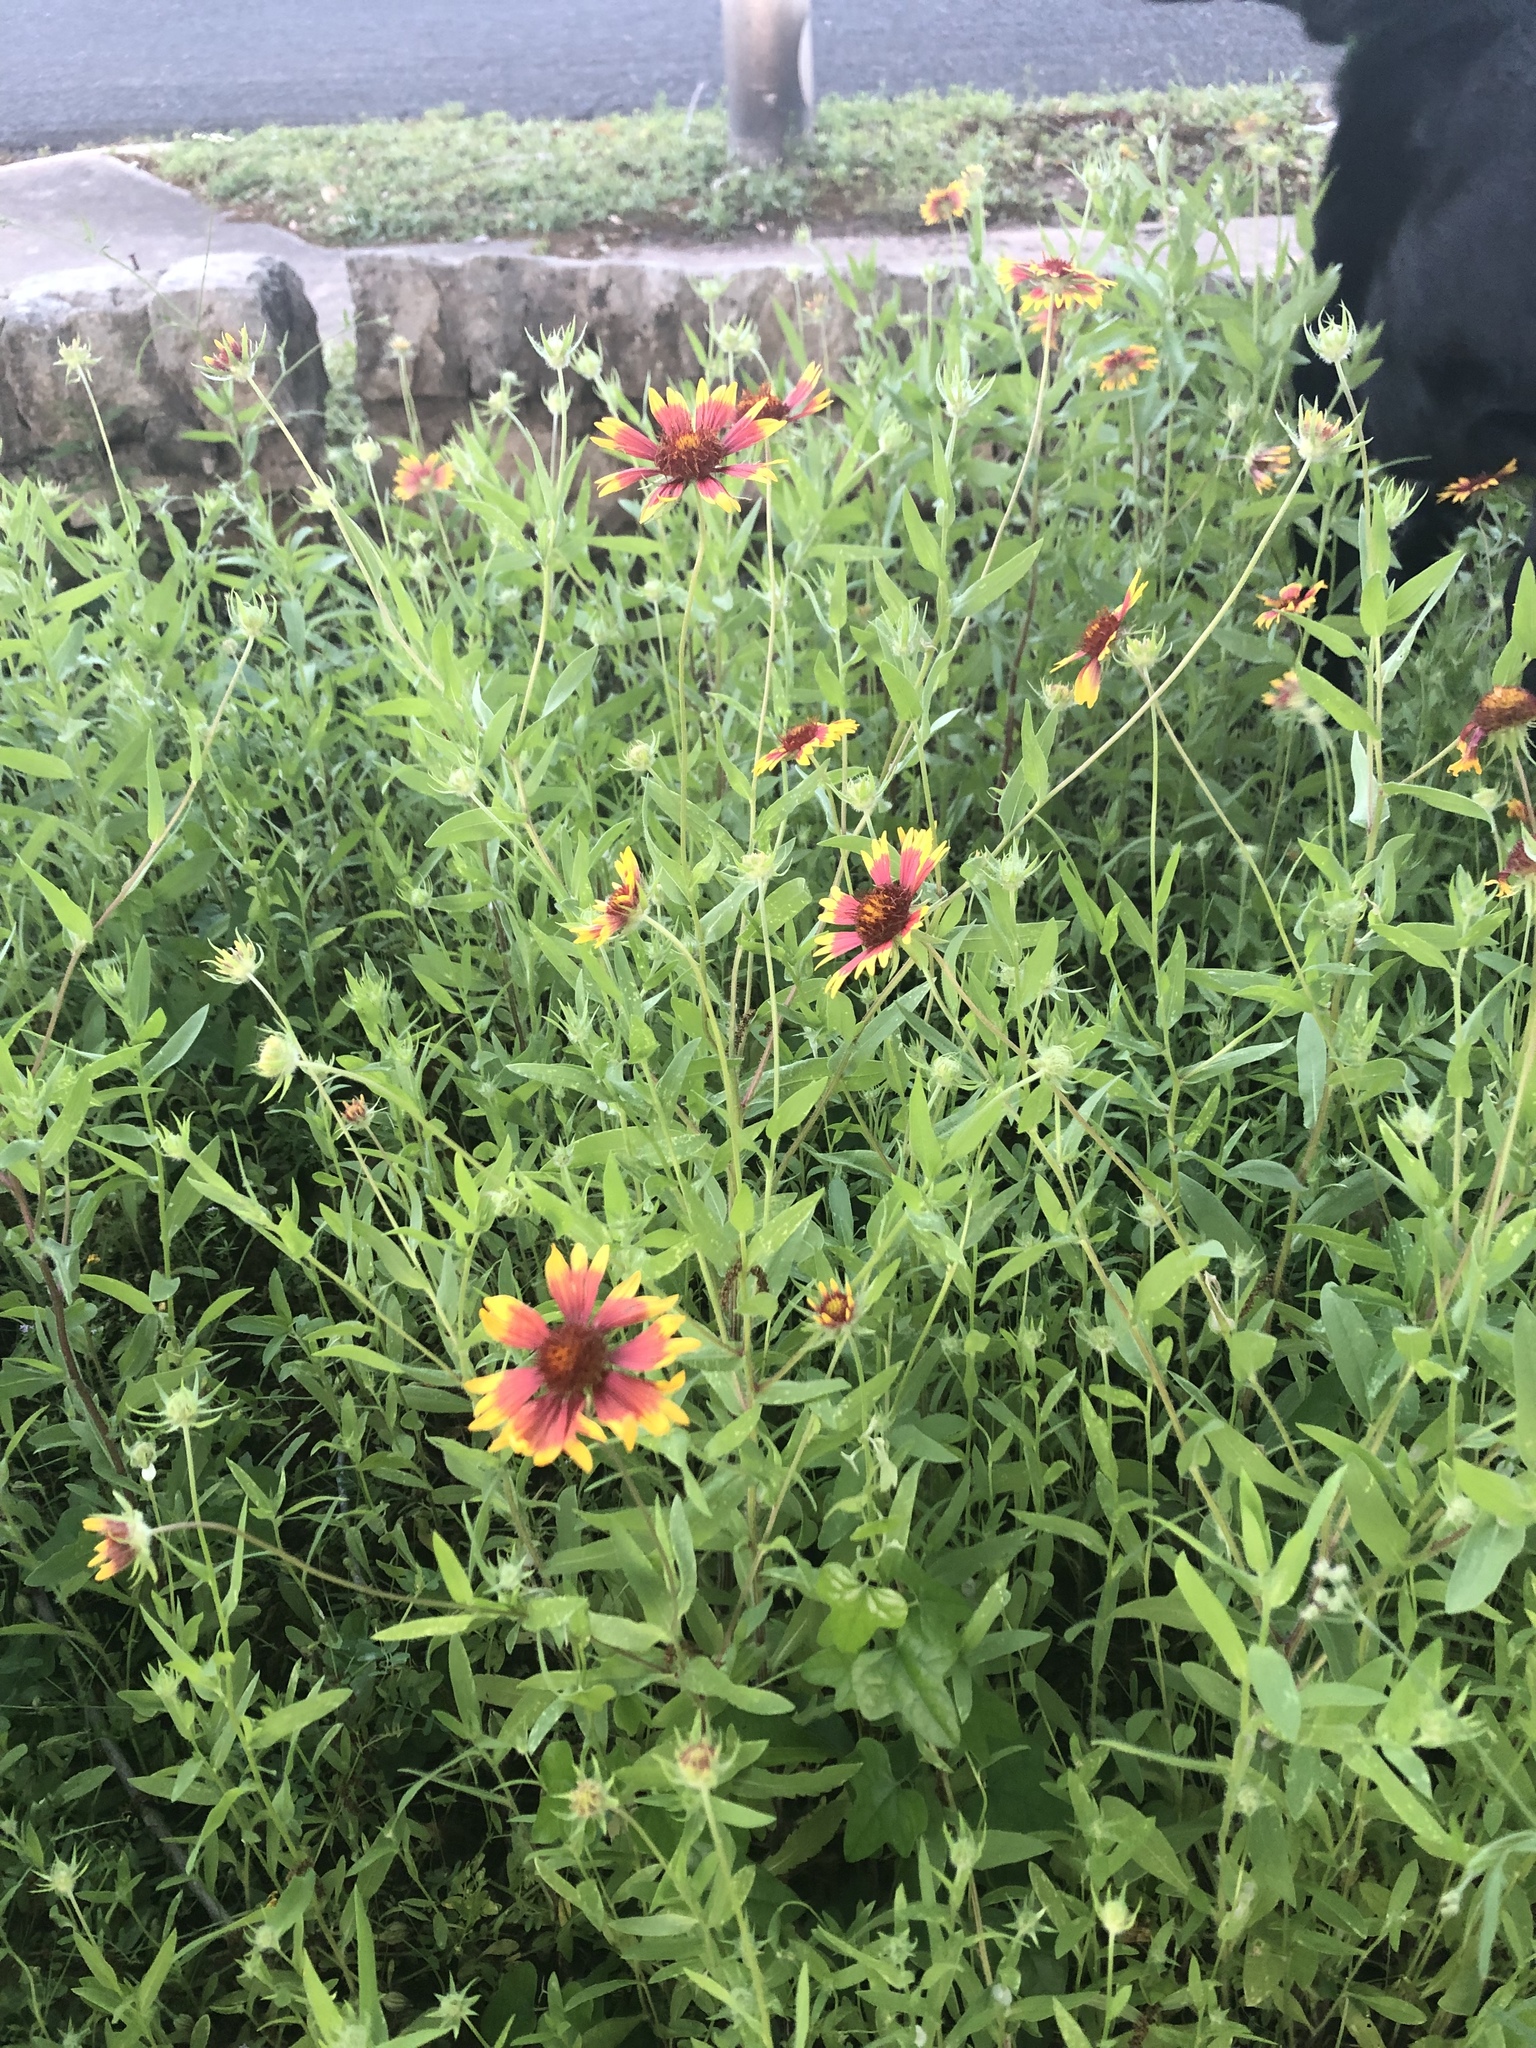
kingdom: Plantae
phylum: Tracheophyta
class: Magnoliopsida
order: Asterales
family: Asteraceae
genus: Gaillardia
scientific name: Gaillardia pulchella
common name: Firewheel
